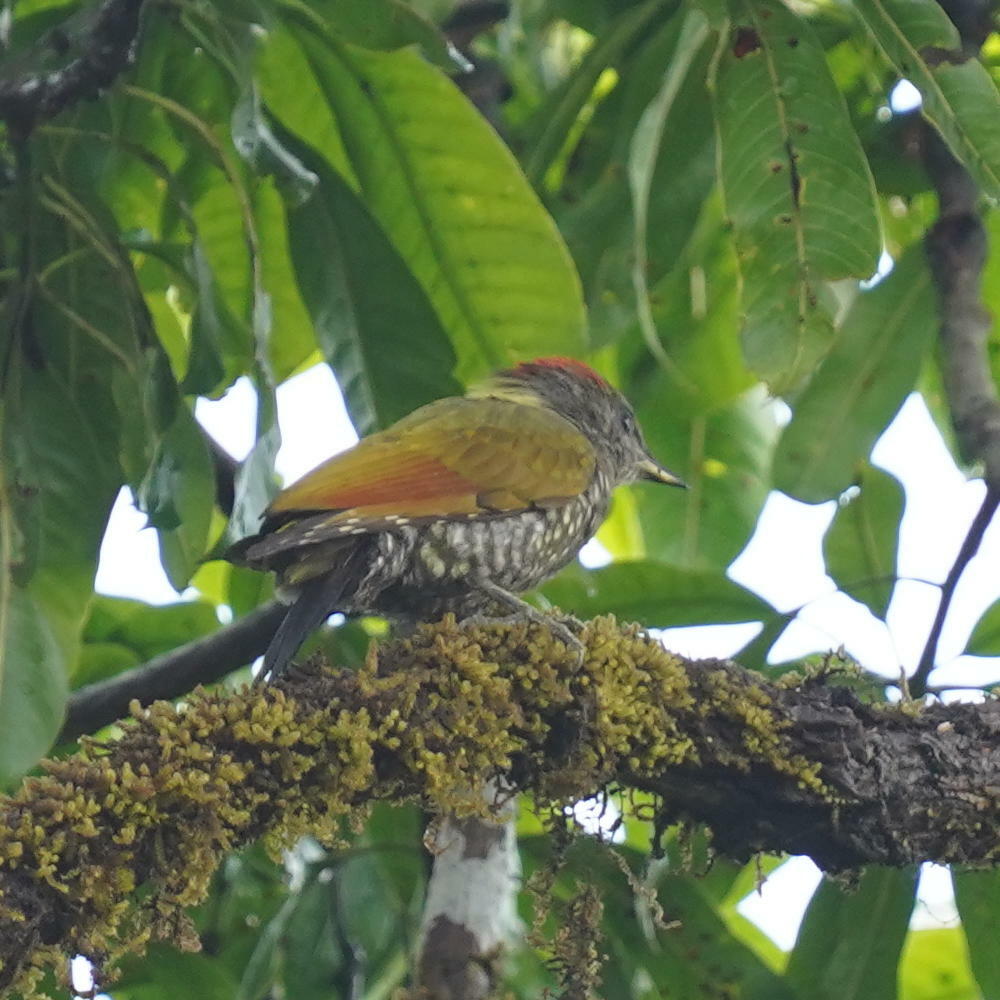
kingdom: Animalia
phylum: Chordata
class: Aves
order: Piciformes
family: Picidae
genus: Picus
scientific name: Picus chlorolophus
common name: Lesser yellownape
